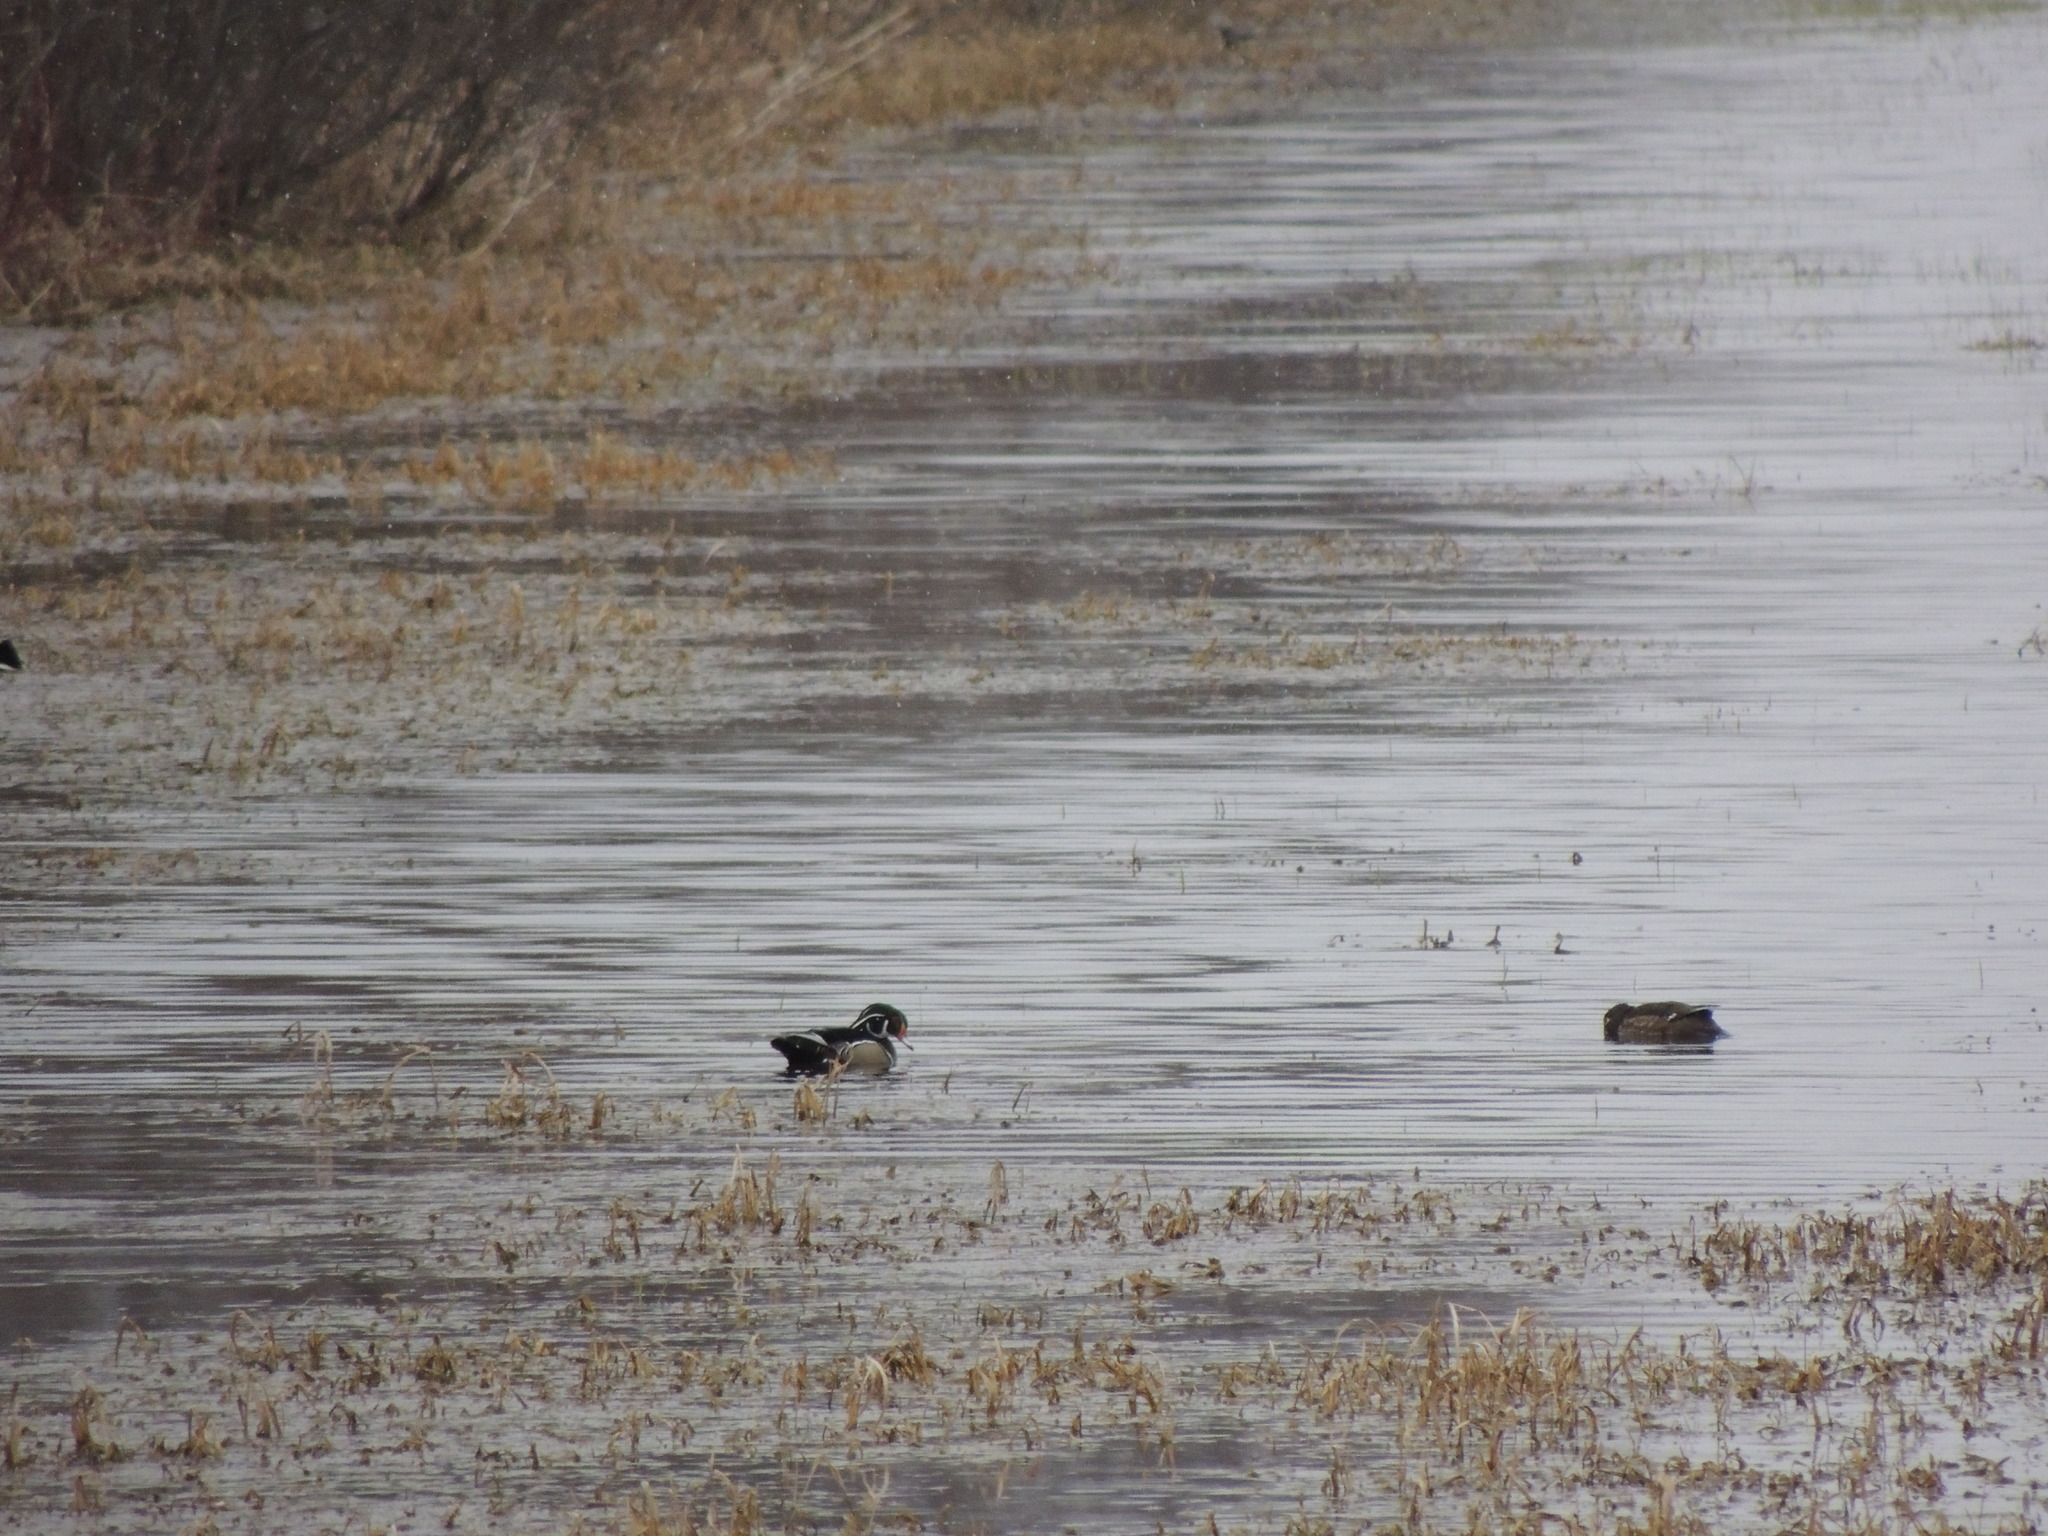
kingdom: Animalia
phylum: Chordata
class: Aves
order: Anseriformes
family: Anatidae
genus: Aix
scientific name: Aix sponsa
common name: Wood duck
